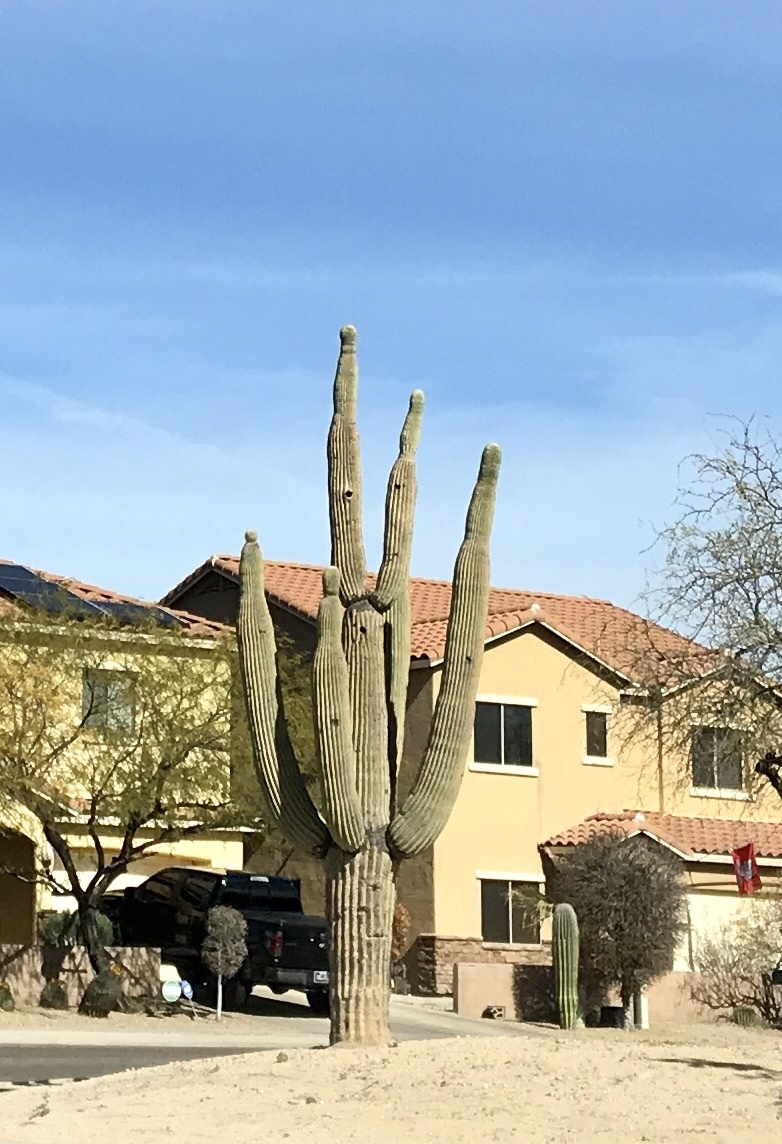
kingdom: Plantae
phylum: Tracheophyta
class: Magnoliopsida
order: Caryophyllales
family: Cactaceae
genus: Carnegiea
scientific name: Carnegiea gigantea
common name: Saguaro
